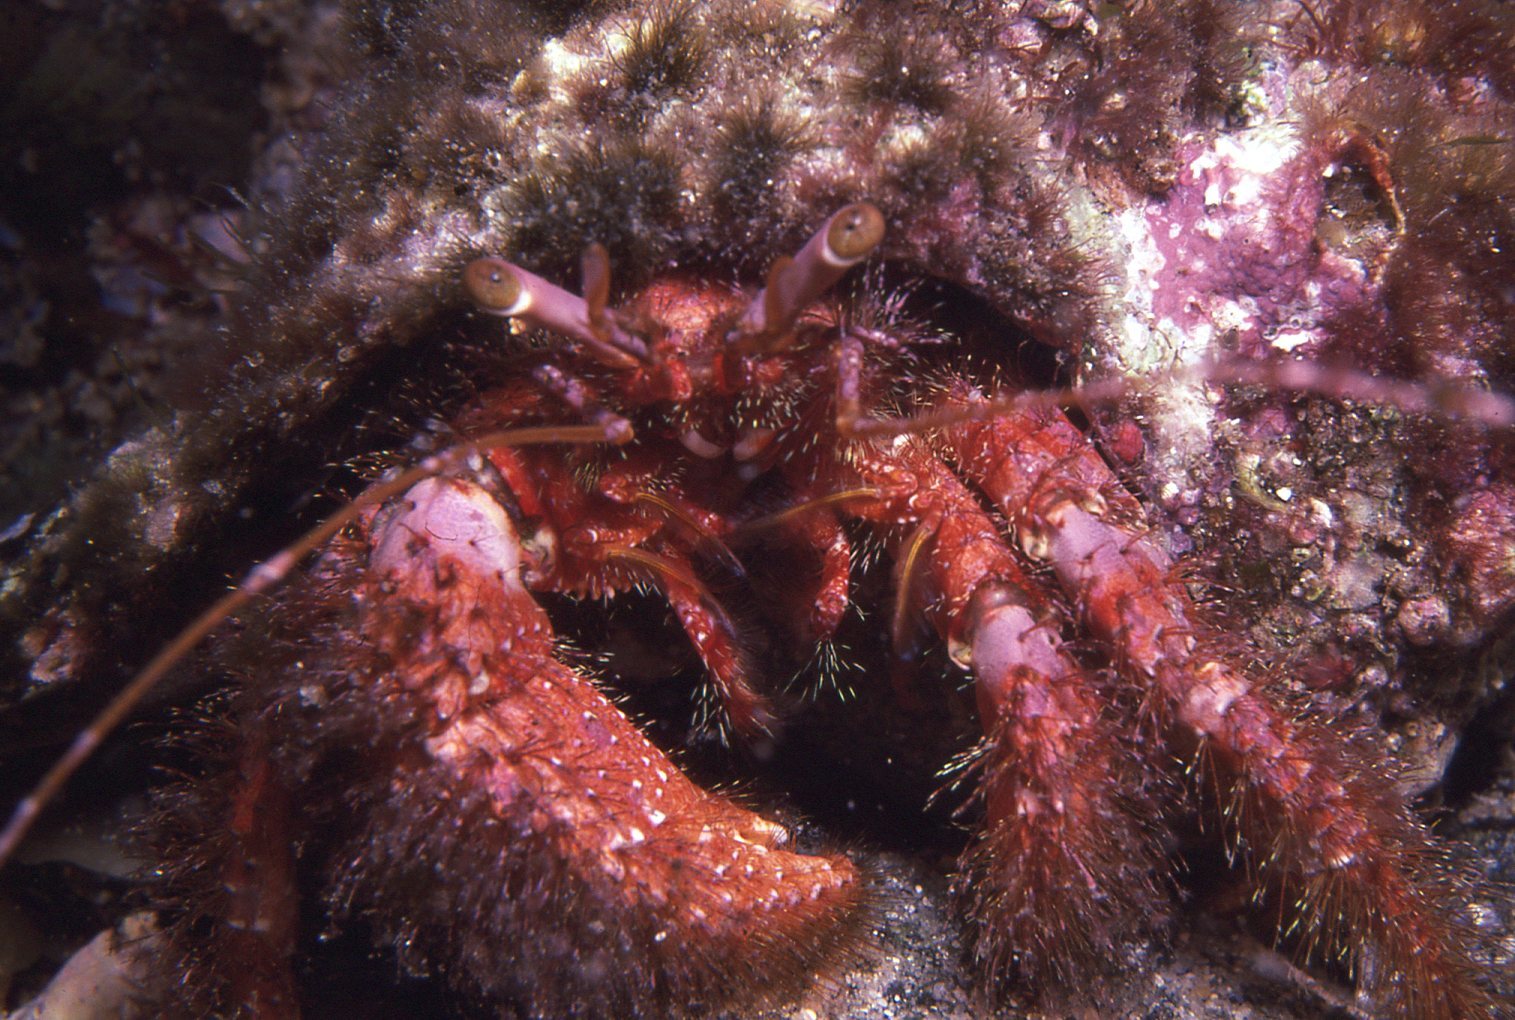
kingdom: Animalia
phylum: Arthropoda
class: Malacostraca
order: Decapoda
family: Diogenidae
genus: Dardanus
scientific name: Dardanus crassimanus
